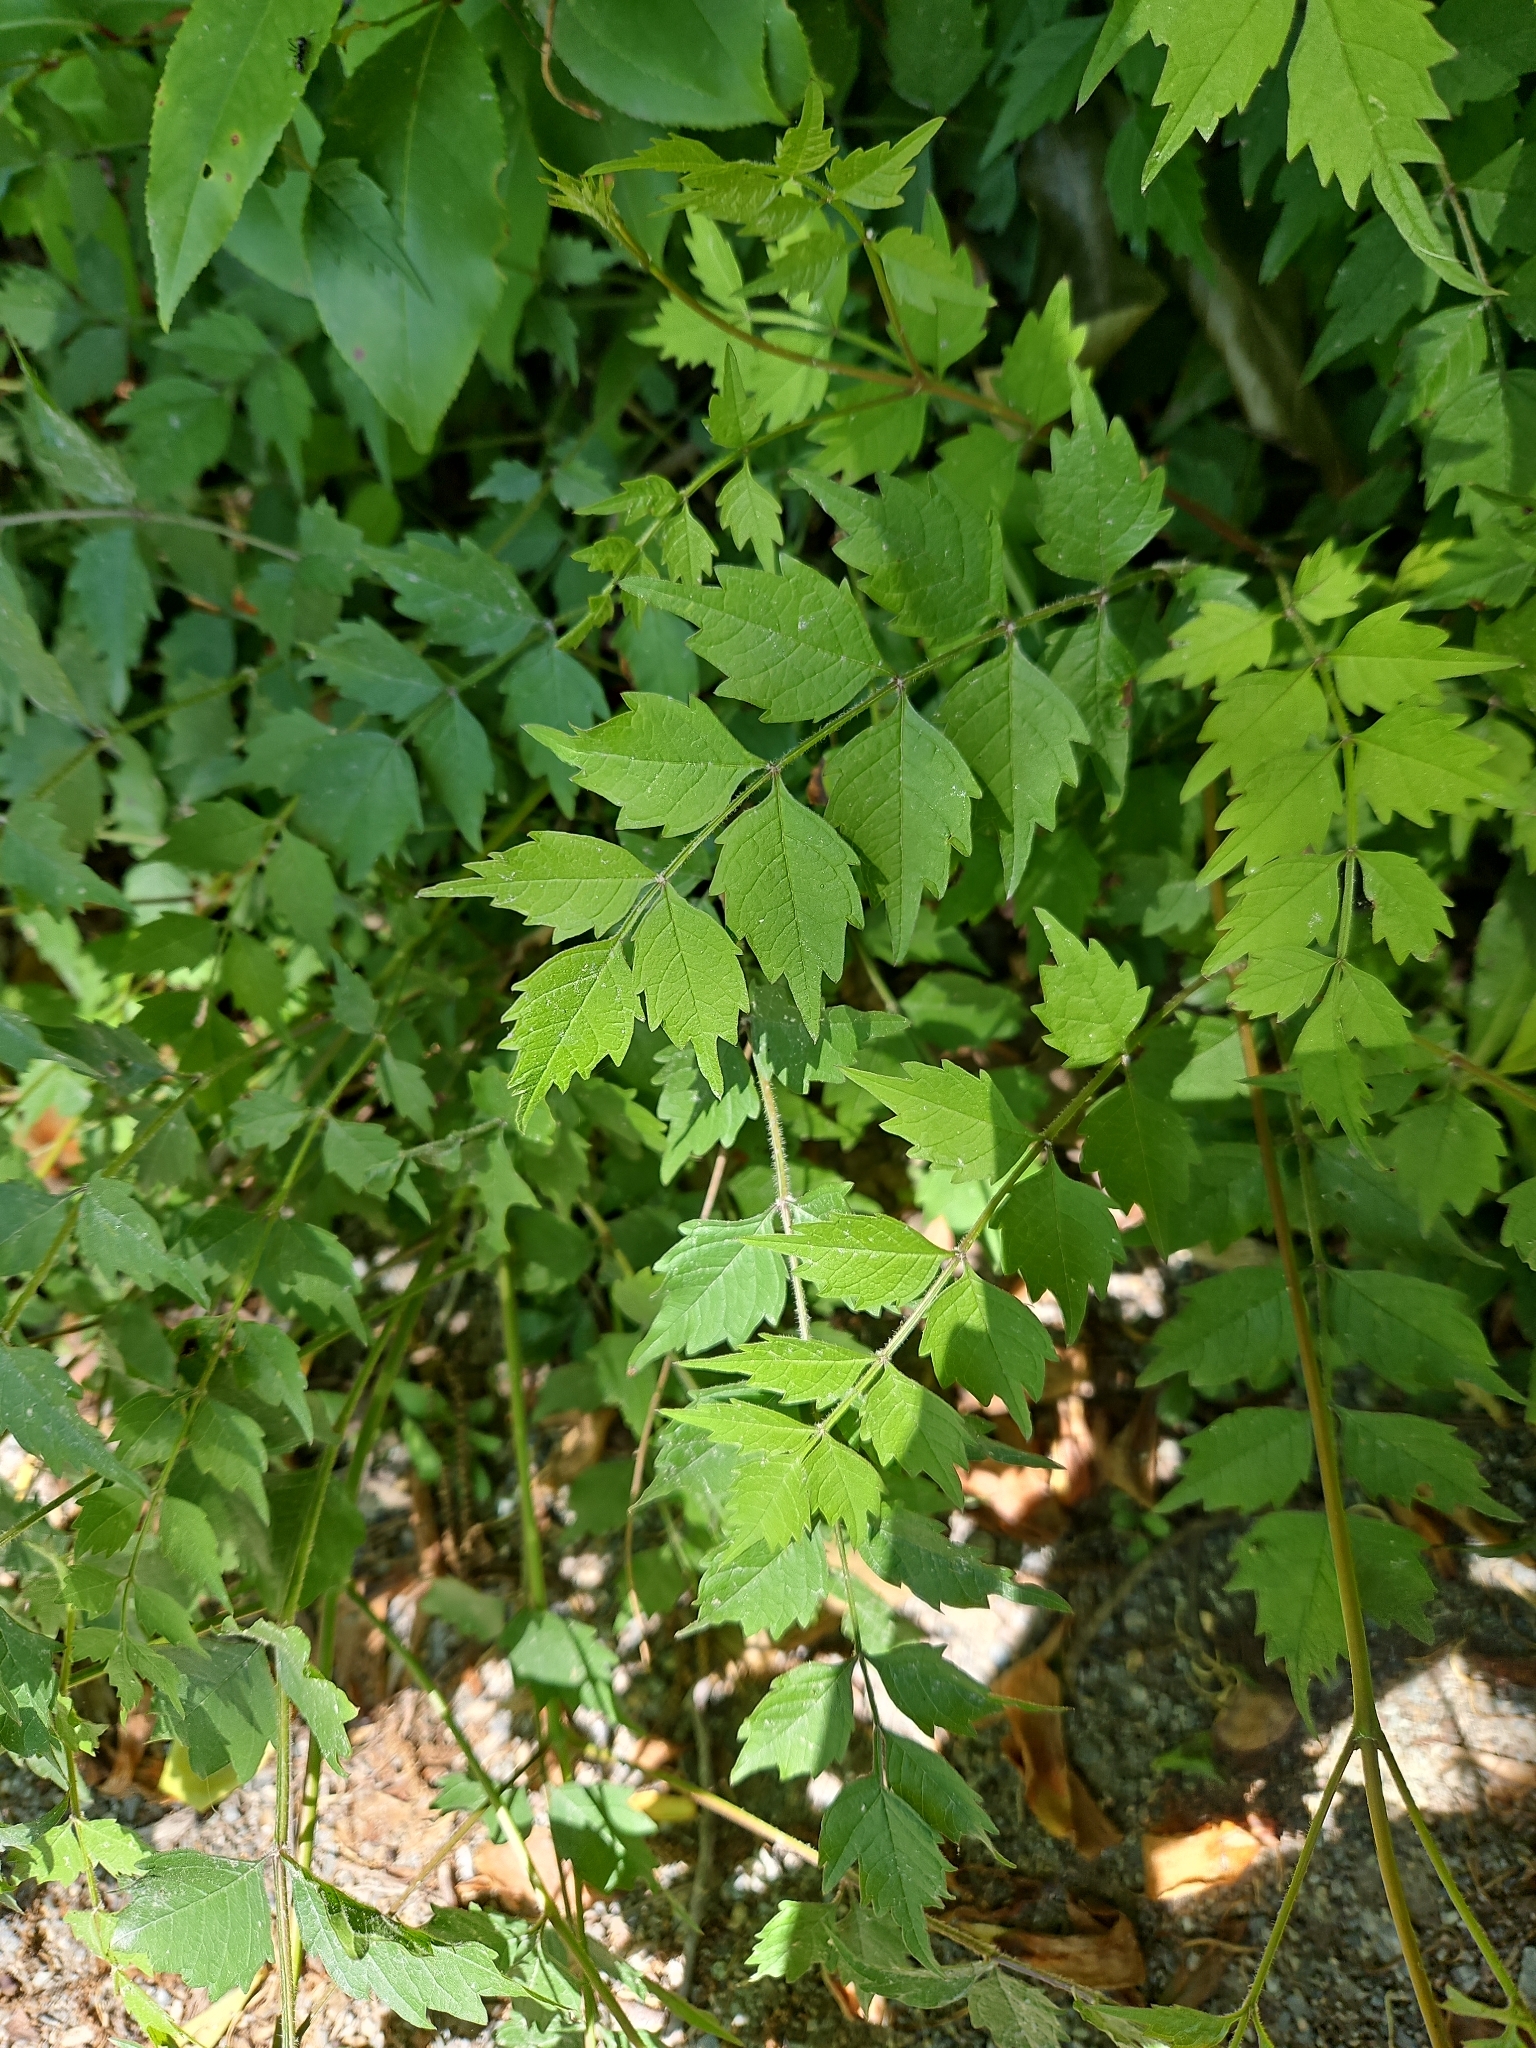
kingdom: Plantae
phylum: Tracheophyta
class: Magnoliopsida
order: Lamiales
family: Bignoniaceae
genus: Campsis
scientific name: Campsis radicans
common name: Trumpet-creeper
